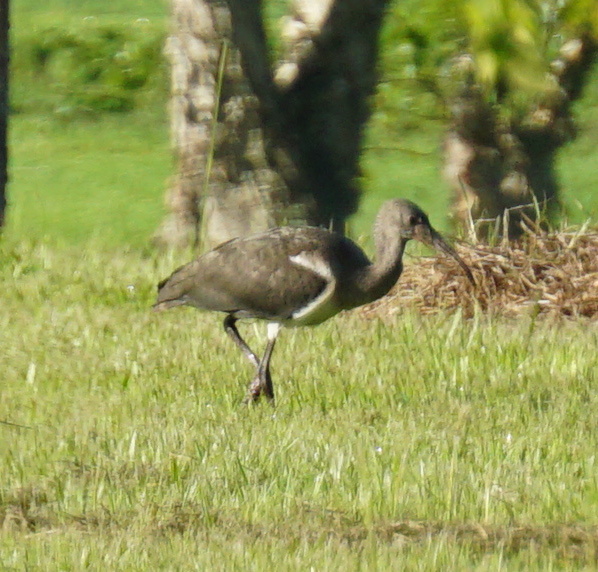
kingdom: Animalia
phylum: Chordata
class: Aves
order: Pelecaniformes
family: Threskiornithidae
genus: Eudocimus
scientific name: Eudocimus albus
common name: White ibis
